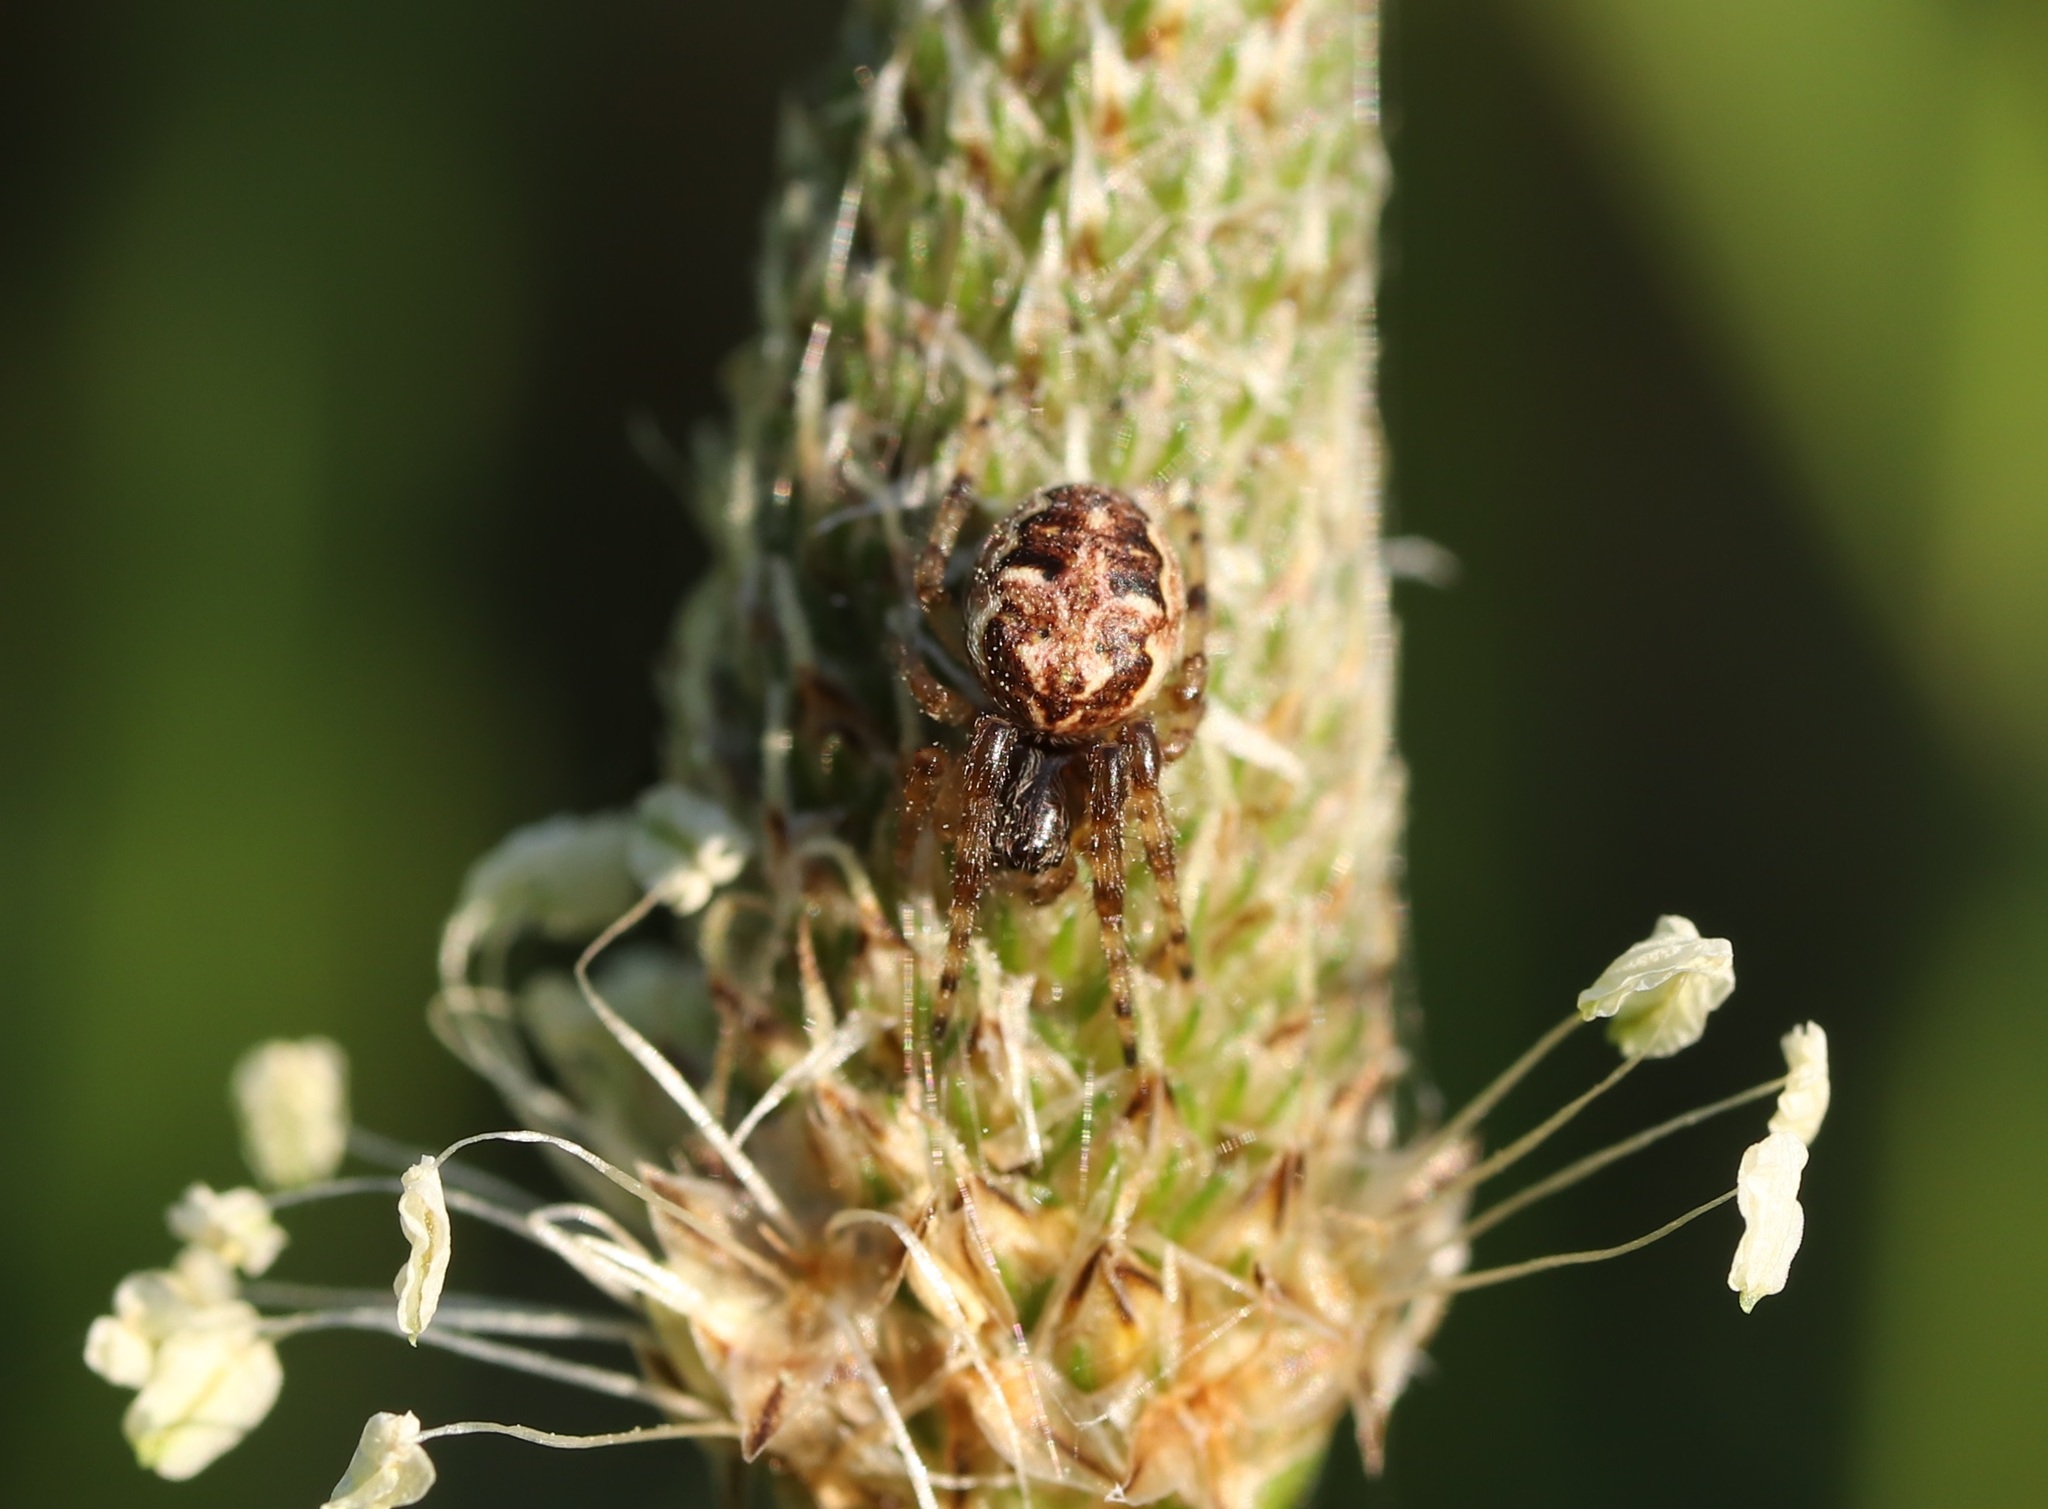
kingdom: Animalia
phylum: Arthropoda
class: Arachnida
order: Araneae
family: Araneidae
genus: Larinioides
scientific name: Larinioides cornutus
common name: Furrow orbweaver
